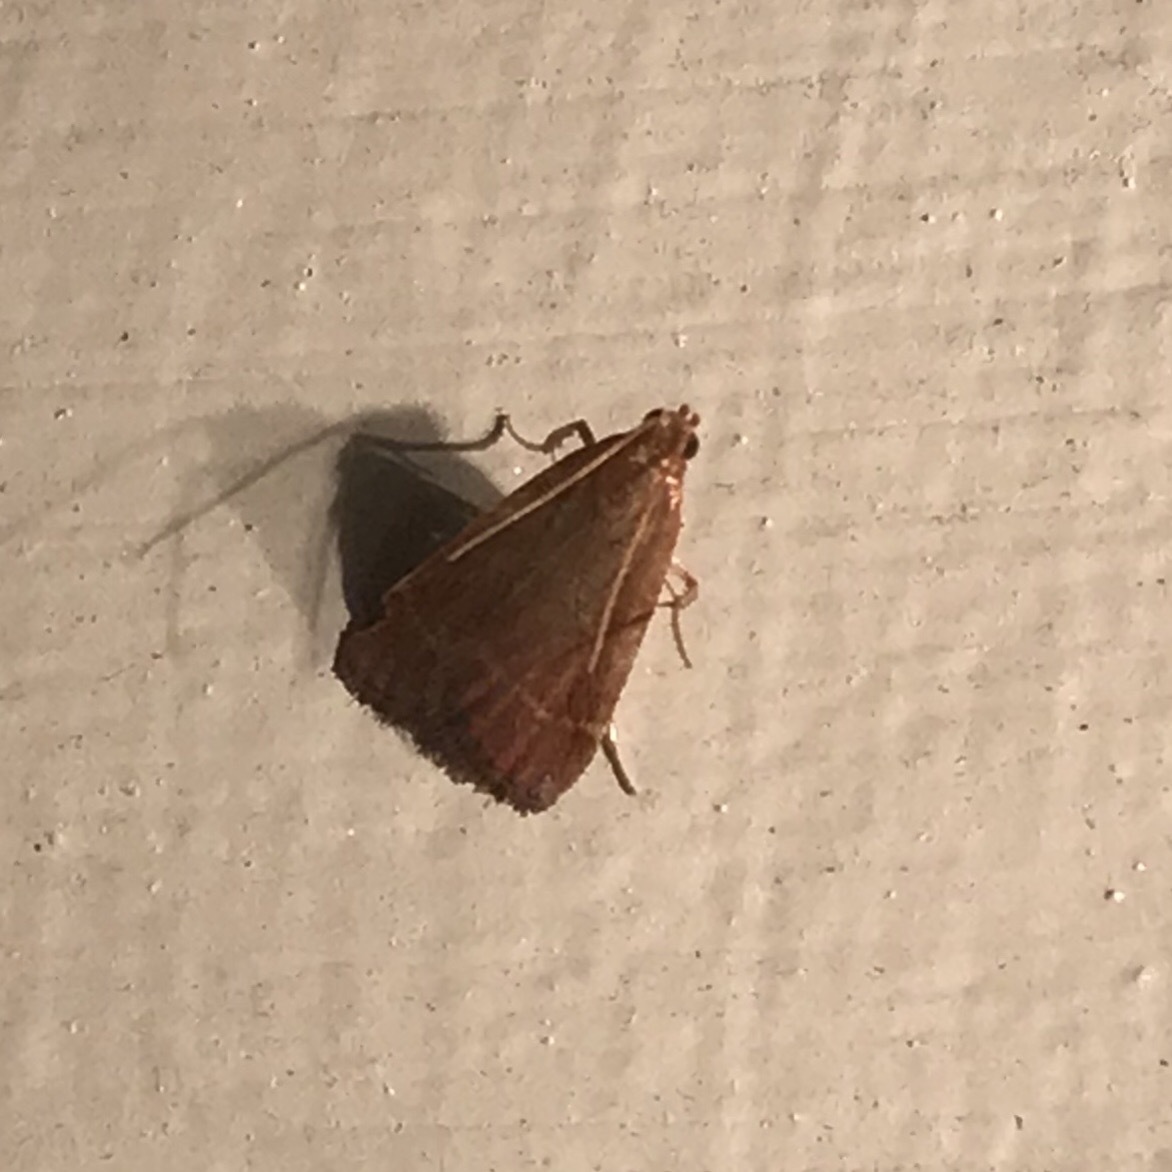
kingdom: Animalia
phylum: Arthropoda
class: Insecta
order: Lepidoptera
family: Pyralidae
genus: Arta
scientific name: Arta statalis
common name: Posturing arta moth
